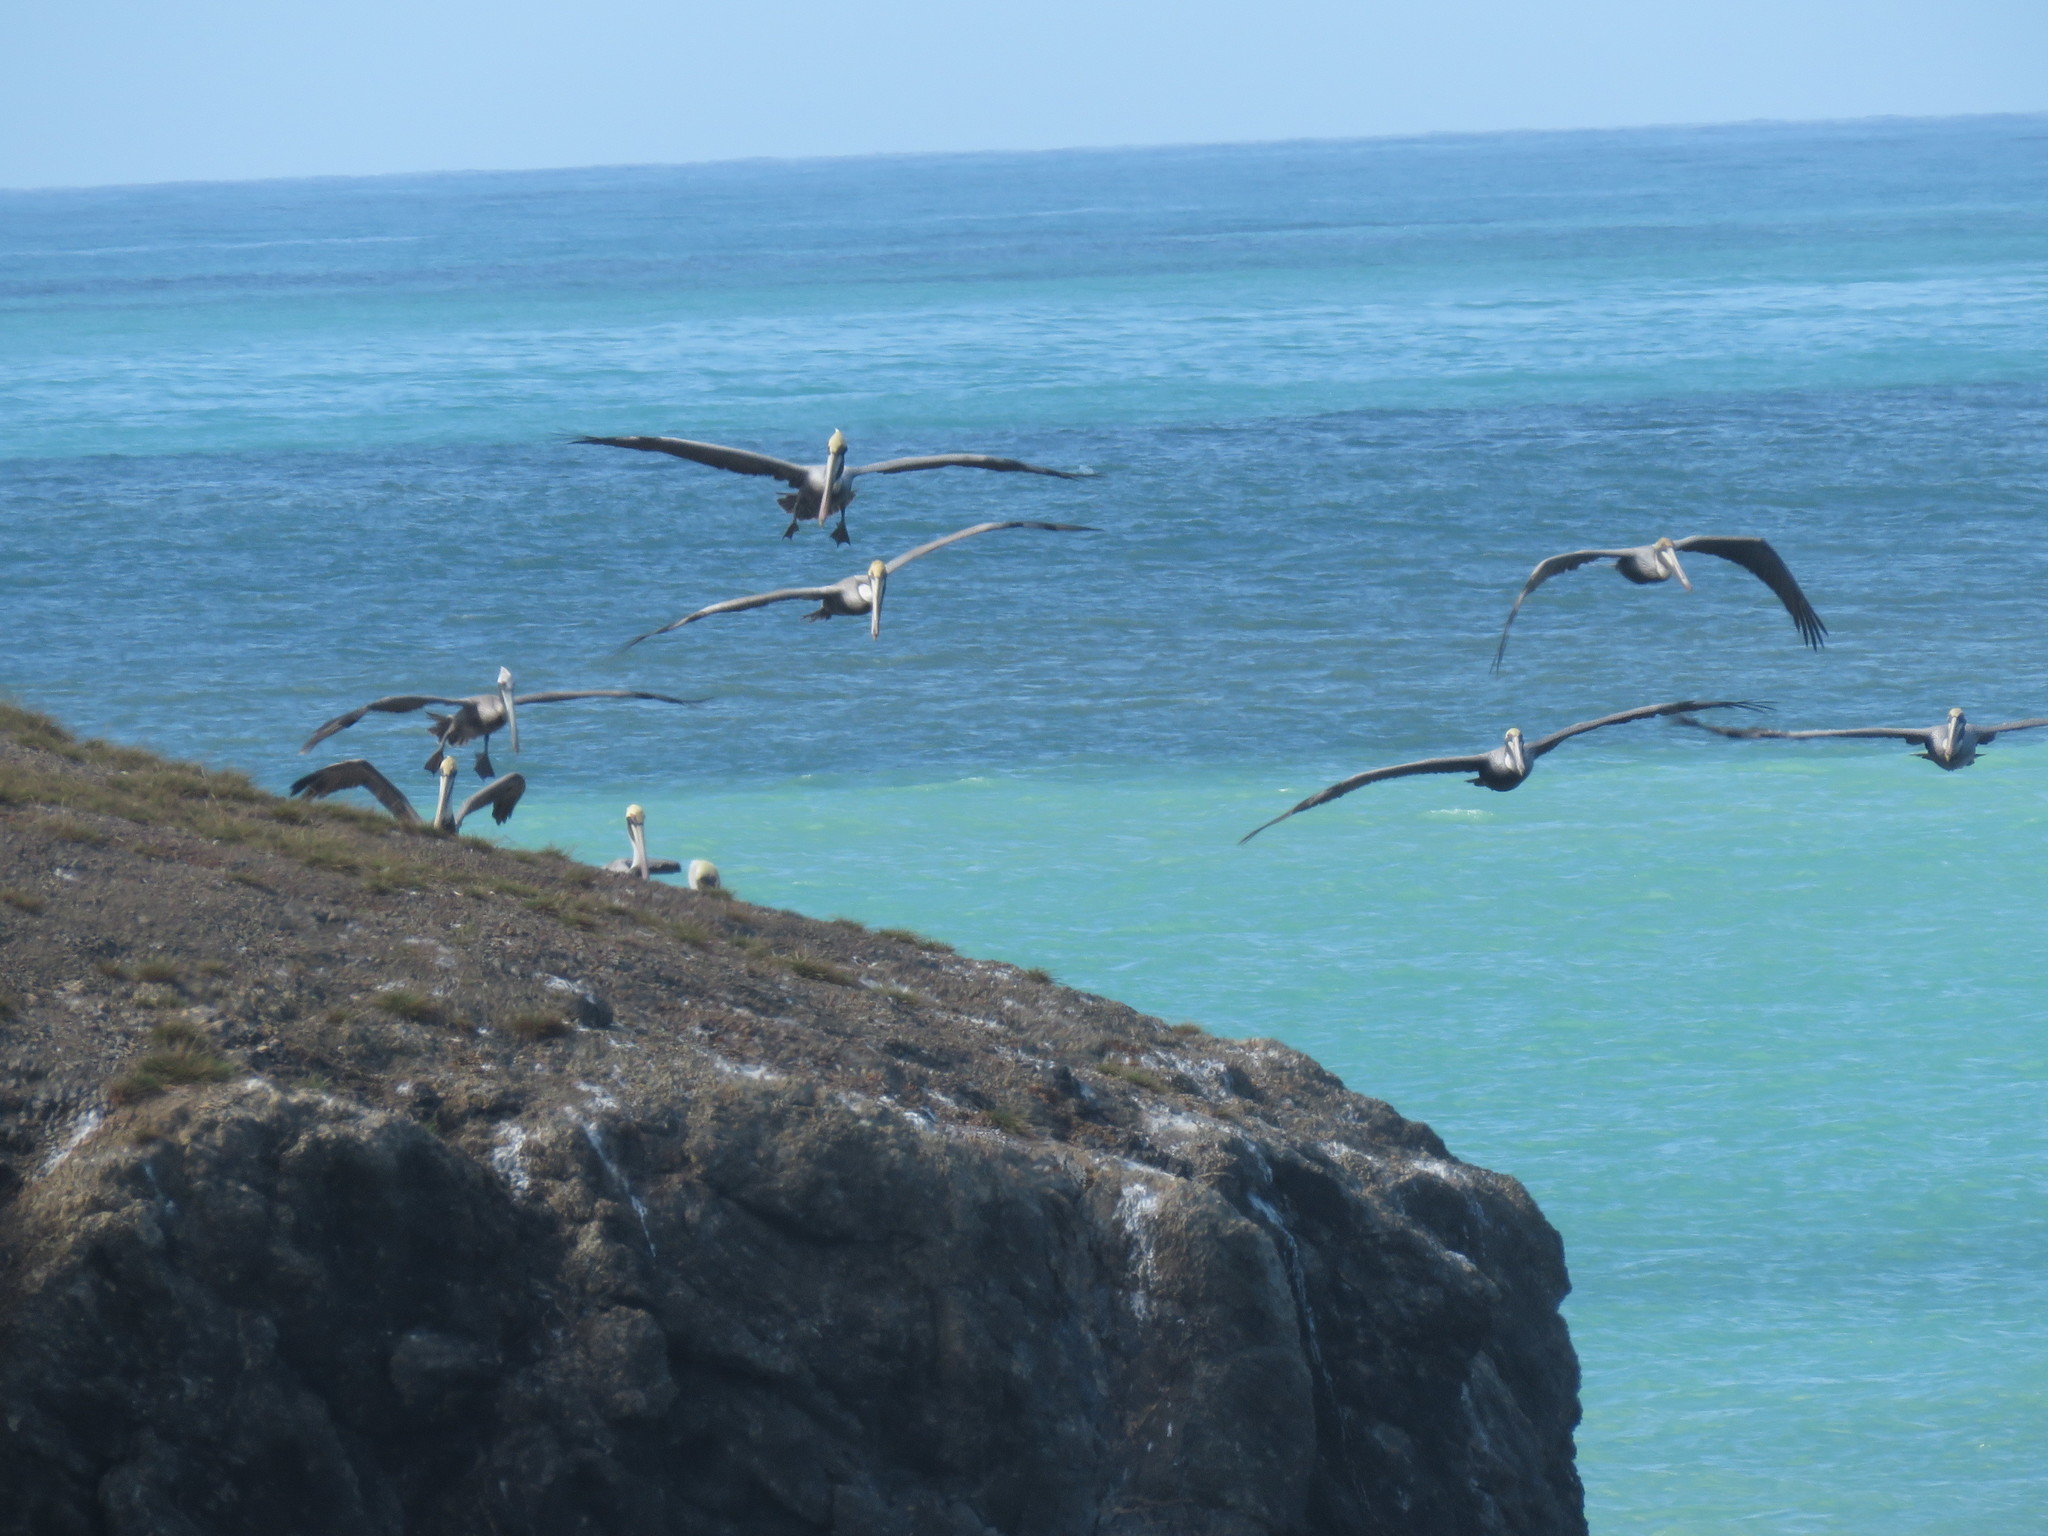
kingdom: Animalia
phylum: Chordata
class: Aves
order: Pelecaniformes
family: Pelecanidae
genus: Pelecanus
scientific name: Pelecanus occidentalis
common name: Brown pelican
